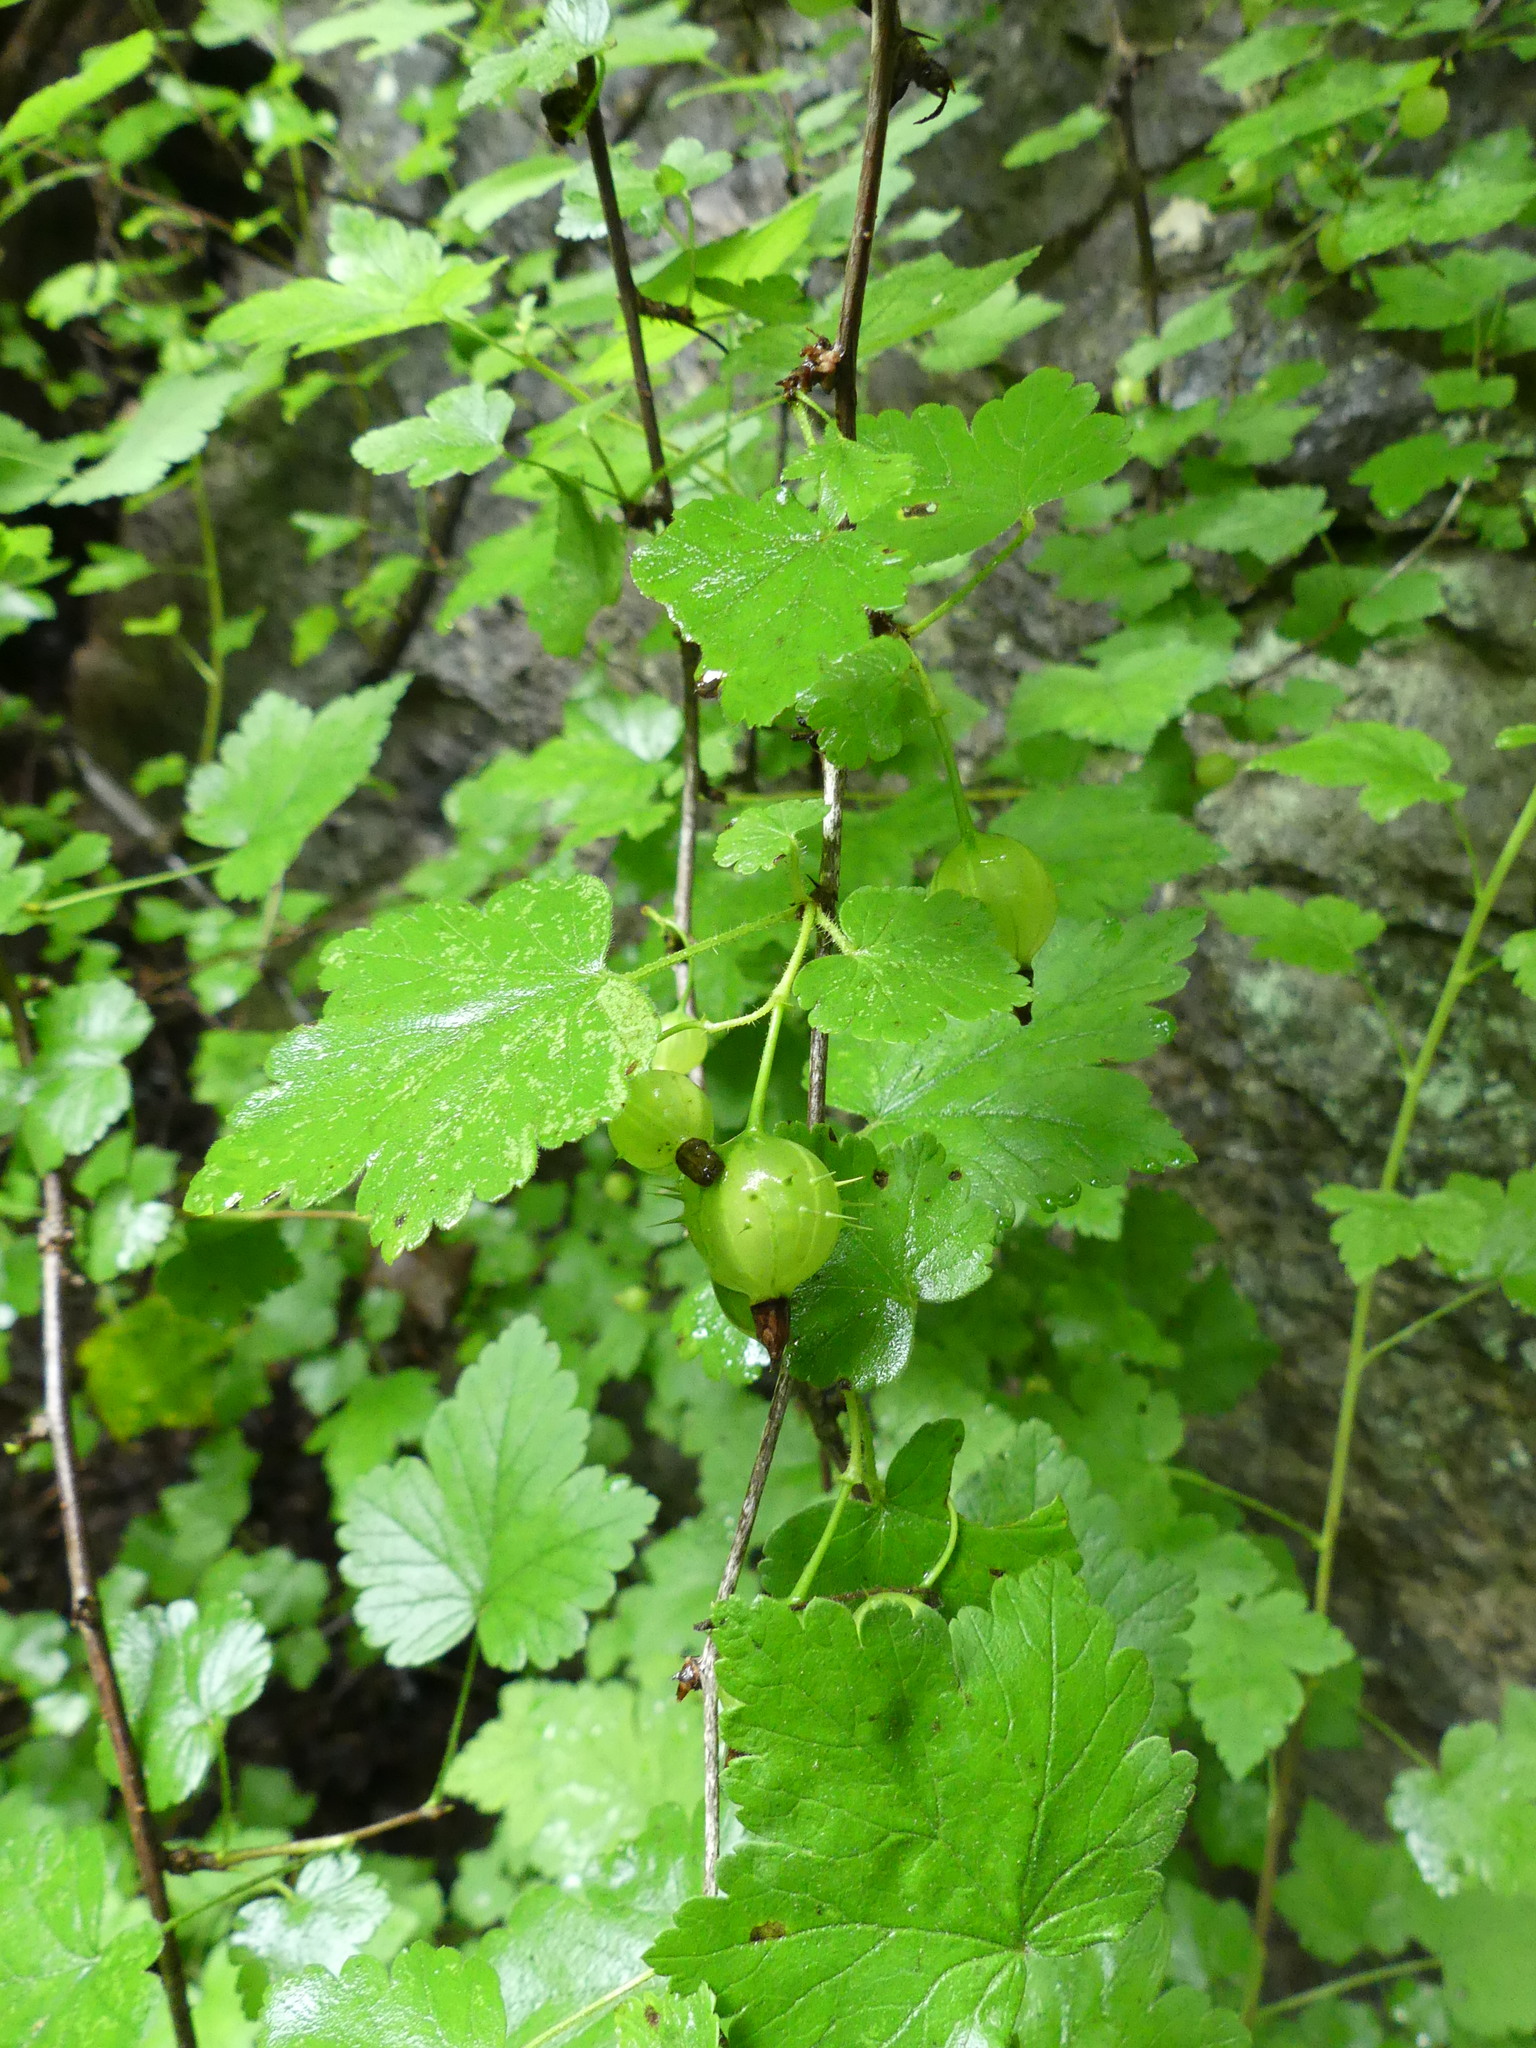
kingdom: Plantae
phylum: Tracheophyta
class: Magnoliopsida
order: Saxifragales
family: Grossulariaceae
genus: Ribes
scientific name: Ribes cynosbati
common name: American gooseberry
